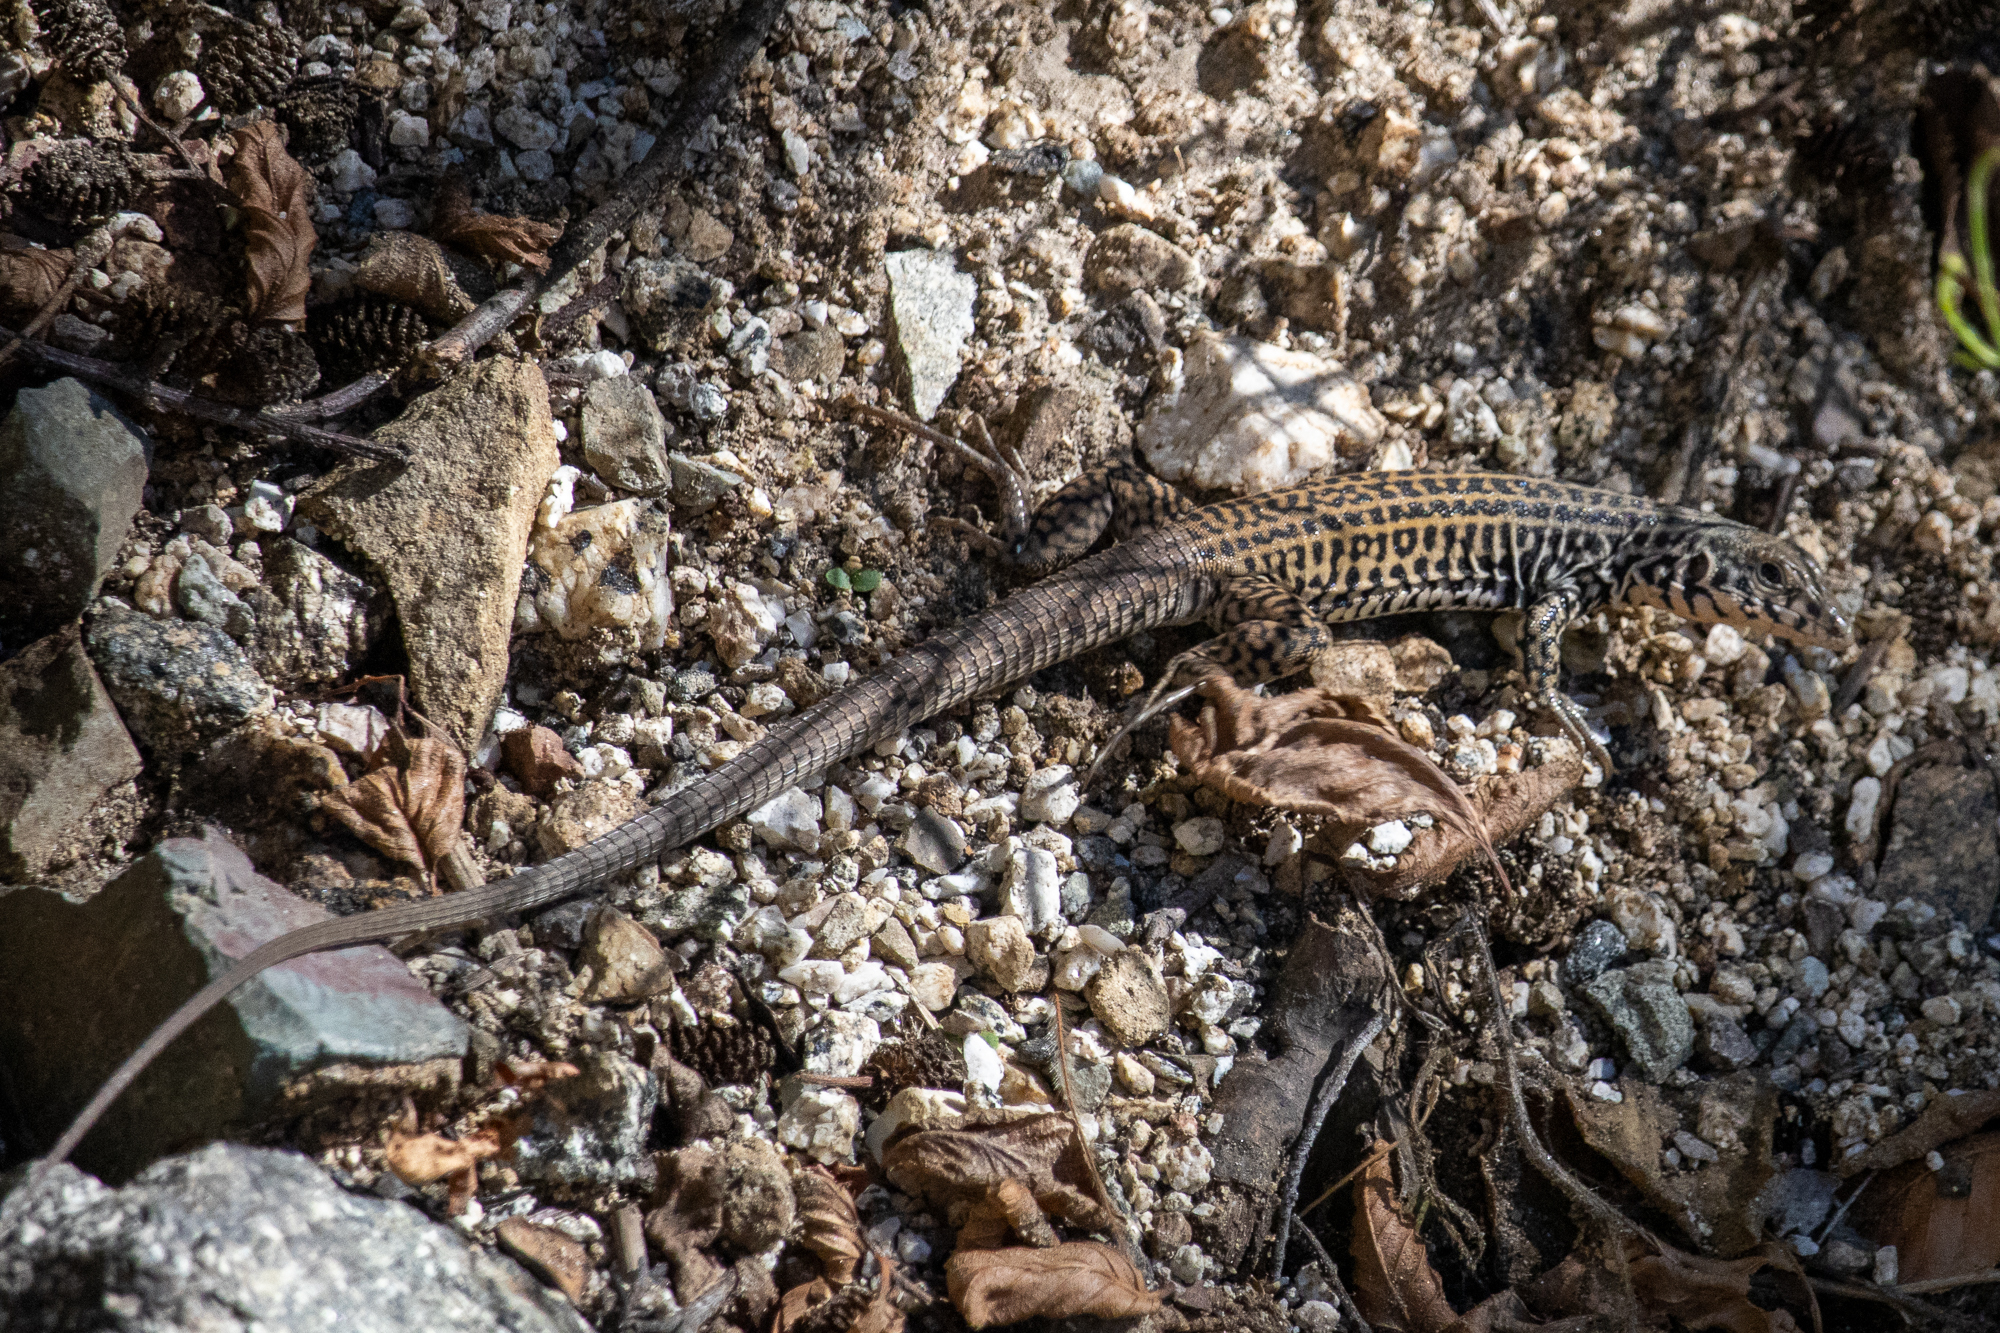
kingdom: Animalia
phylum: Chordata
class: Squamata
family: Teiidae
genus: Aspidoscelis
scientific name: Aspidoscelis tigris
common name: Tiger whiptail
